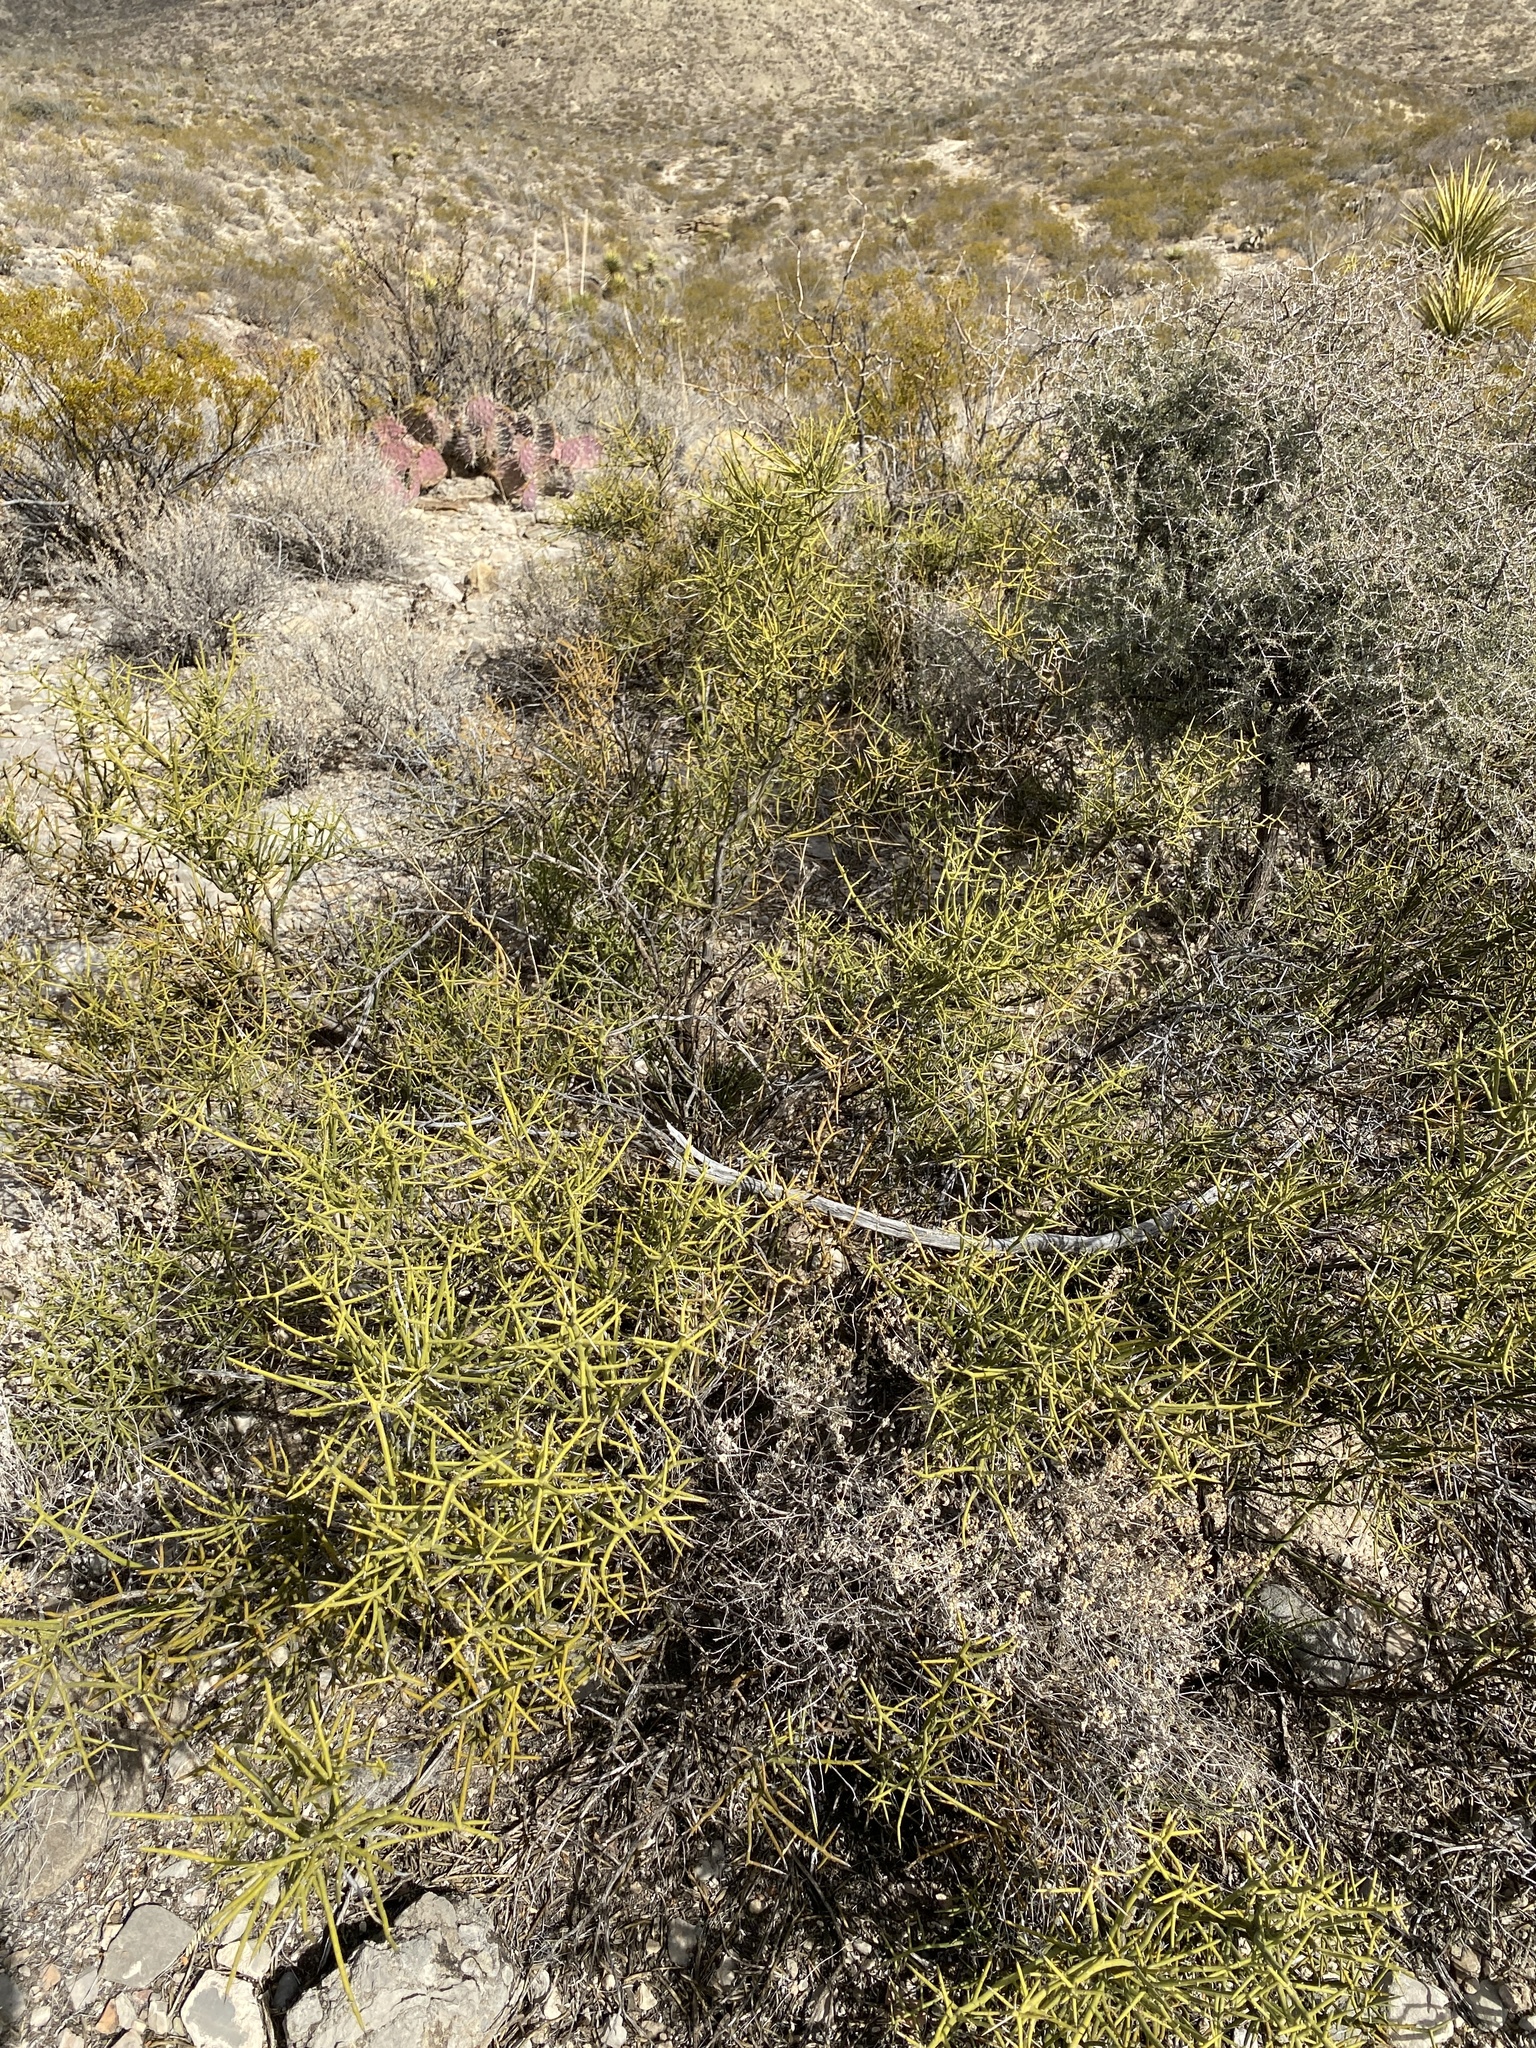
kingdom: Plantae
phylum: Tracheophyta
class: Magnoliopsida
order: Brassicales
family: Koeberliniaceae
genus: Koeberlinia
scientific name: Koeberlinia spinosa
